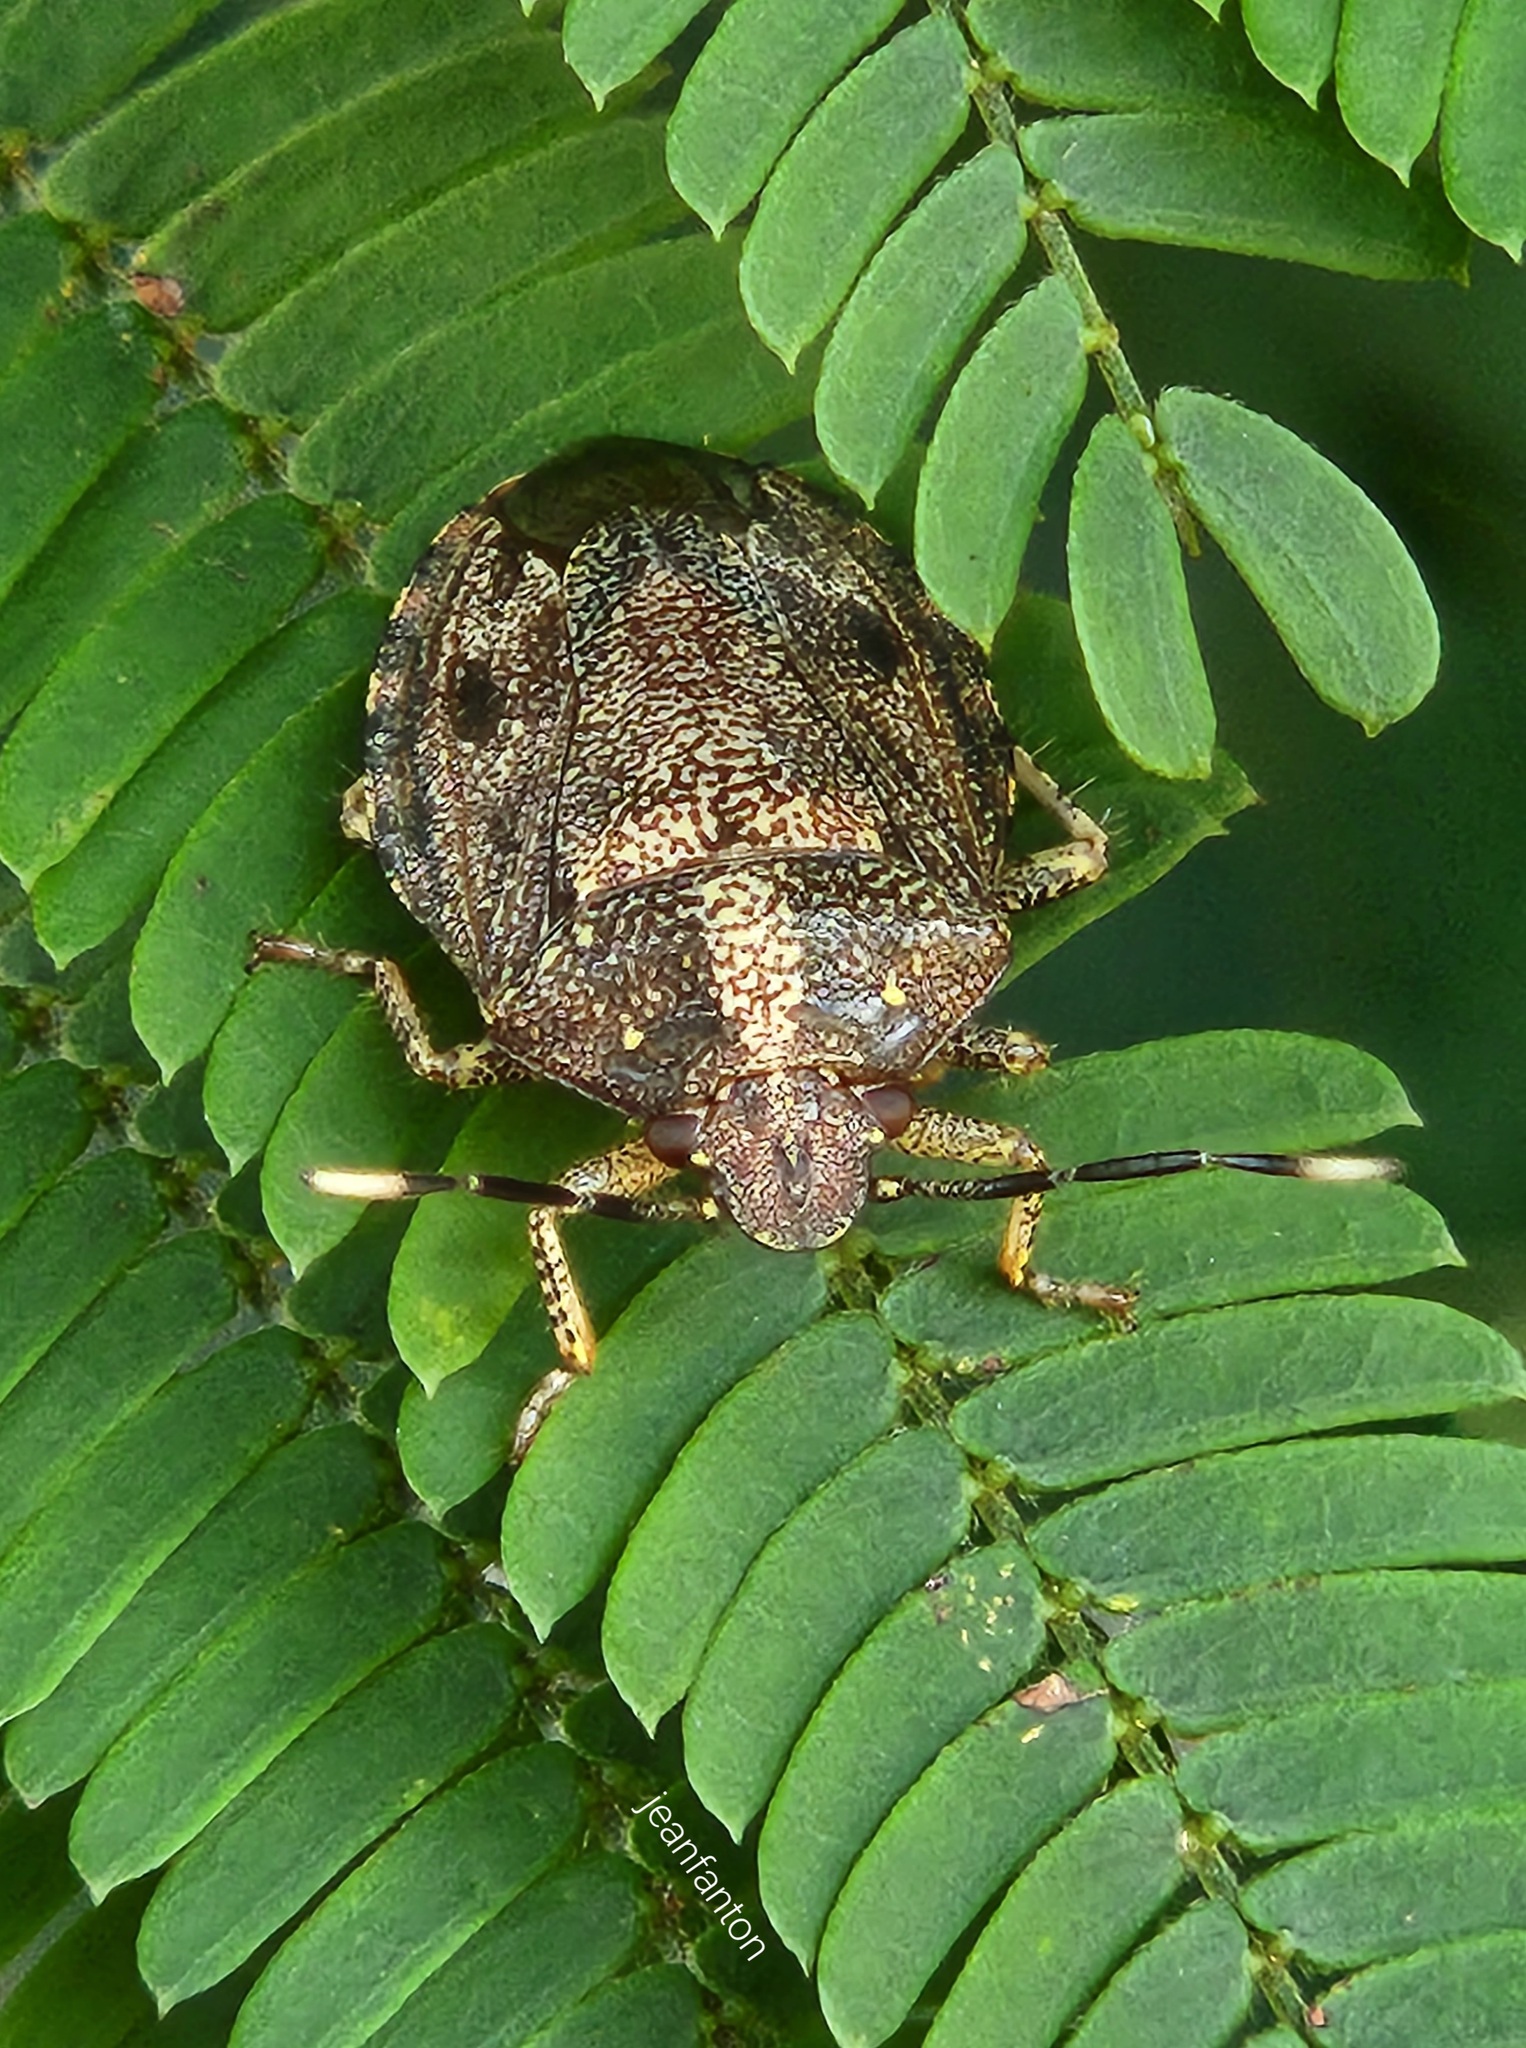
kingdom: Animalia
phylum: Arthropoda
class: Insecta
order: Hemiptera
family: Pentatomidae
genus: Antiteuchus
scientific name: Antiteuchus tripterus
